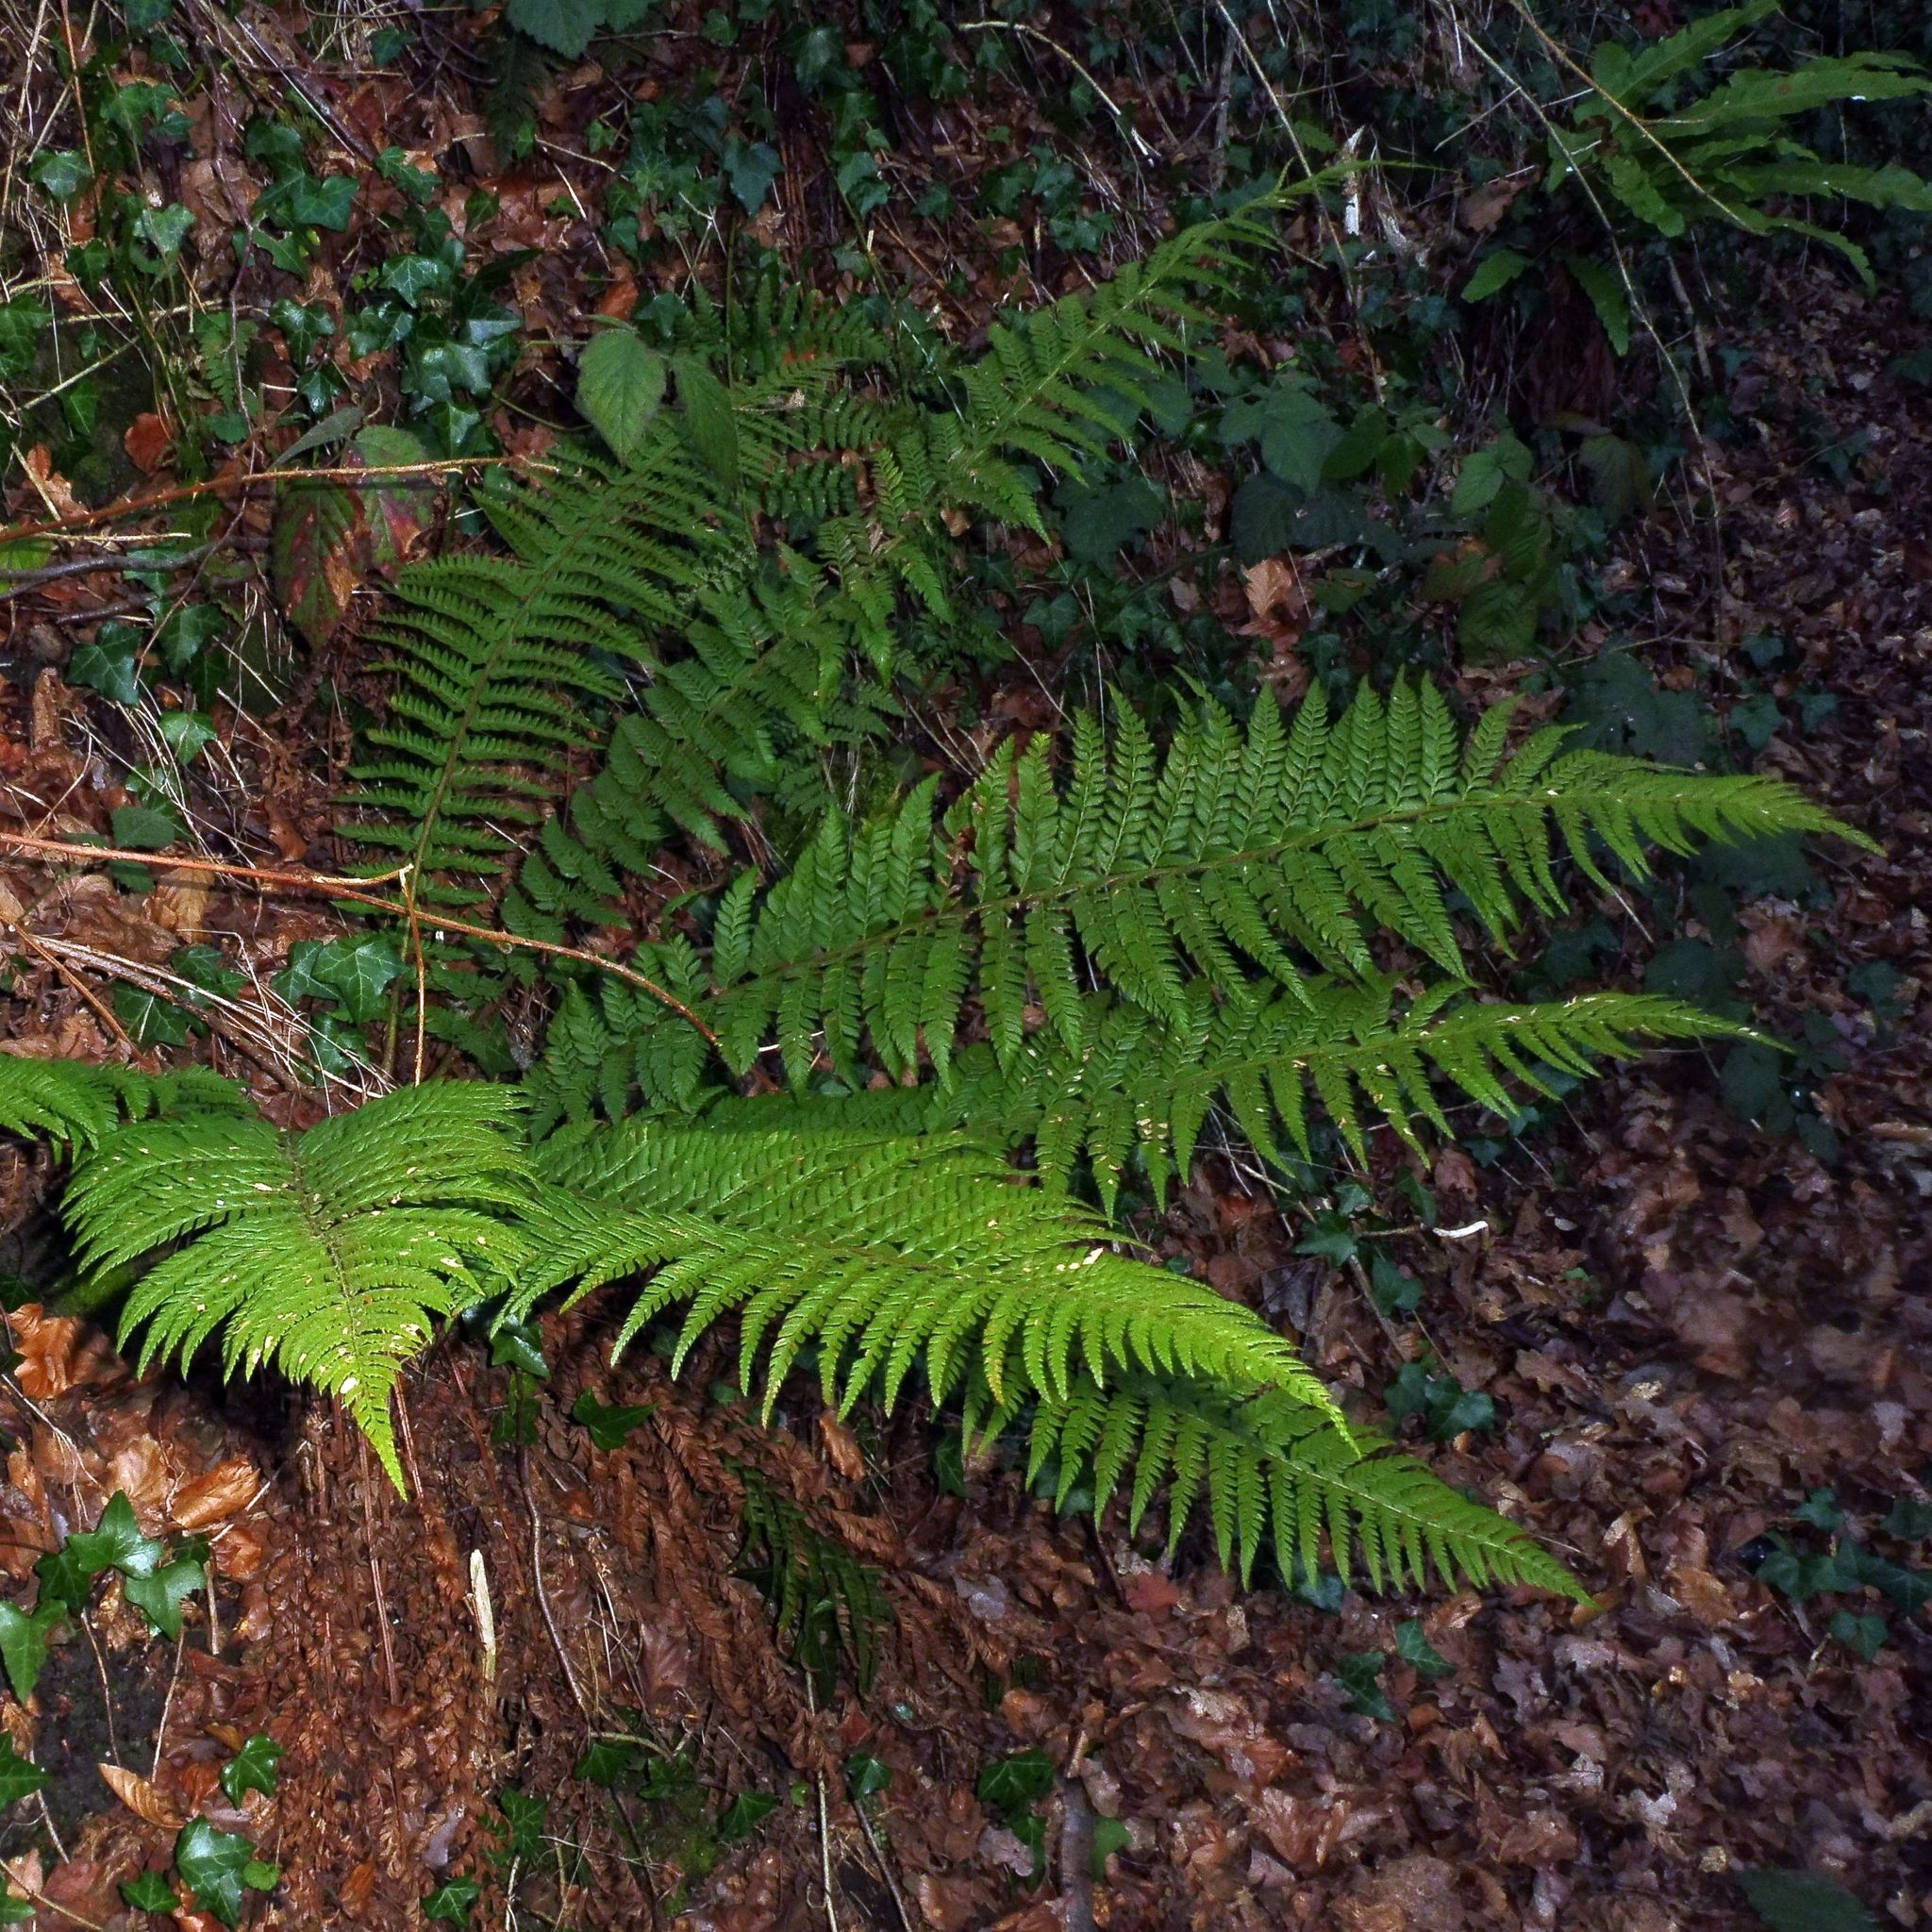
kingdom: Plantae
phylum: Tracheophyta
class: Polypodiopsida
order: Polypodiales
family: Dryopteridaceae
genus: Polystichum
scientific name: Polystichum aculeatum
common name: Hard shield-fern
